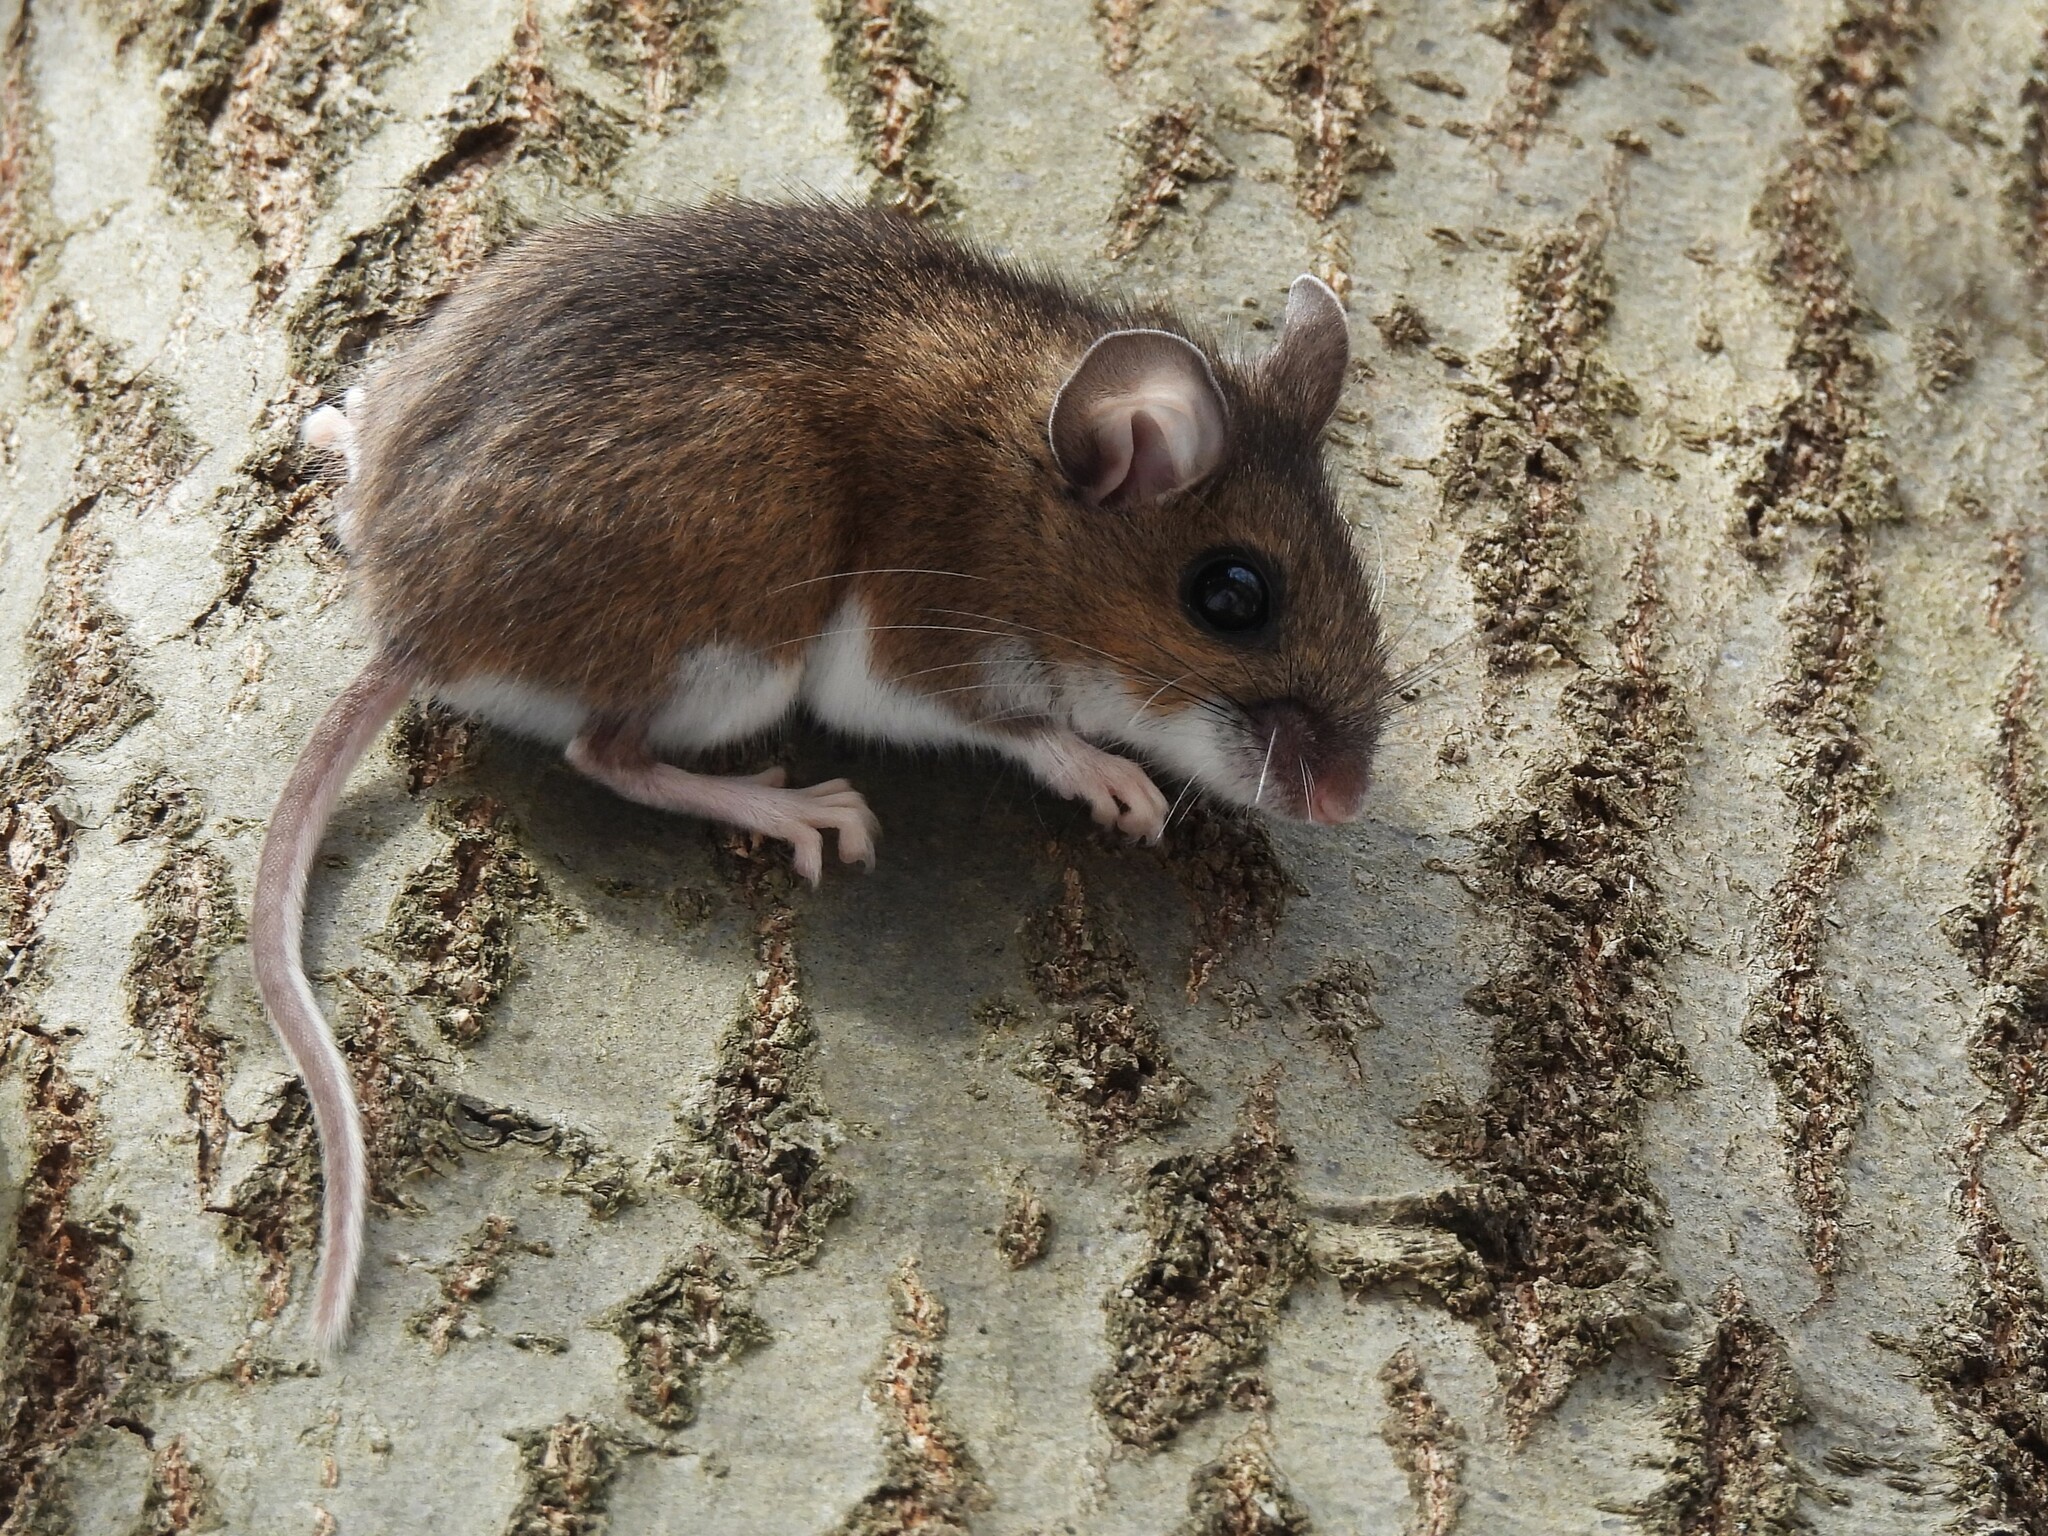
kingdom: Animalia
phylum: Chordata
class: Mammalia
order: Rodentia
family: Cricetidae
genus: Peromyscus
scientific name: Peromyscus leucopus
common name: White-footed deermouse
